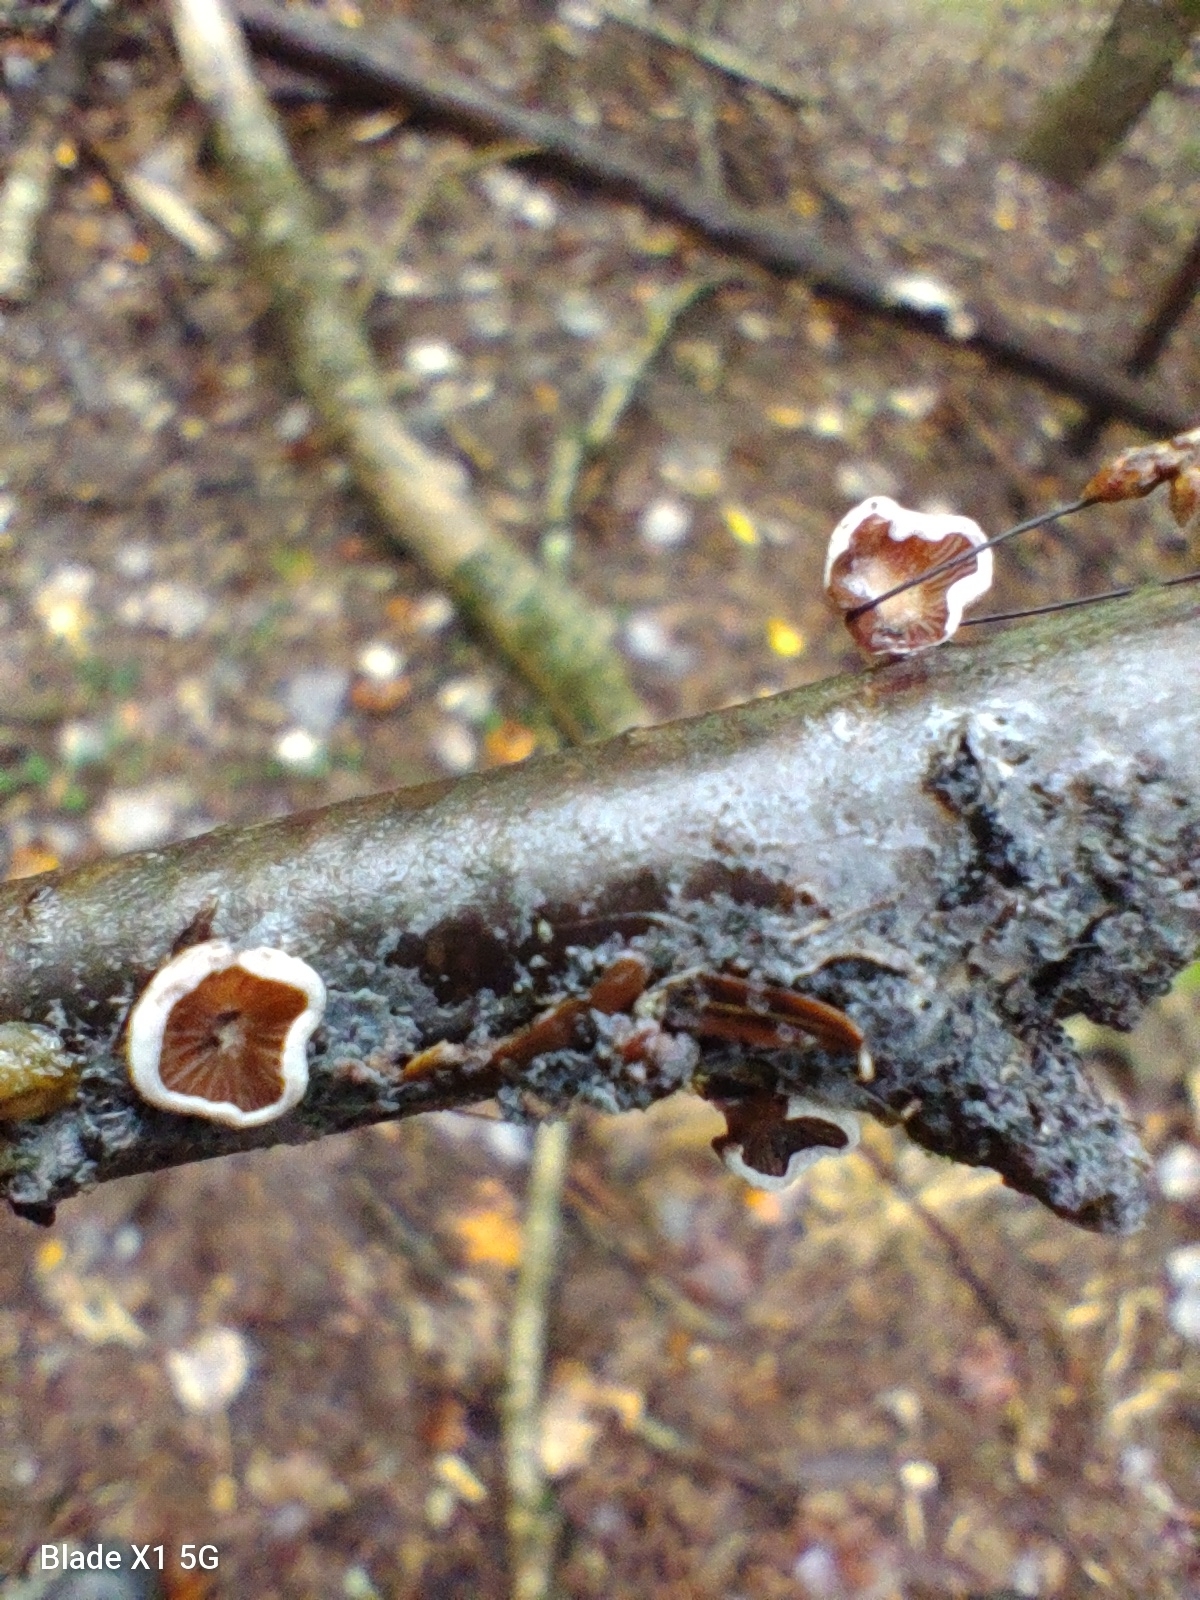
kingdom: Fungi
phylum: Basidiomycota
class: Agaricomycetes
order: Agaricales
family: Mycenaceae
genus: Panellus
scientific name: Panellus ringens
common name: Winter oysterling
